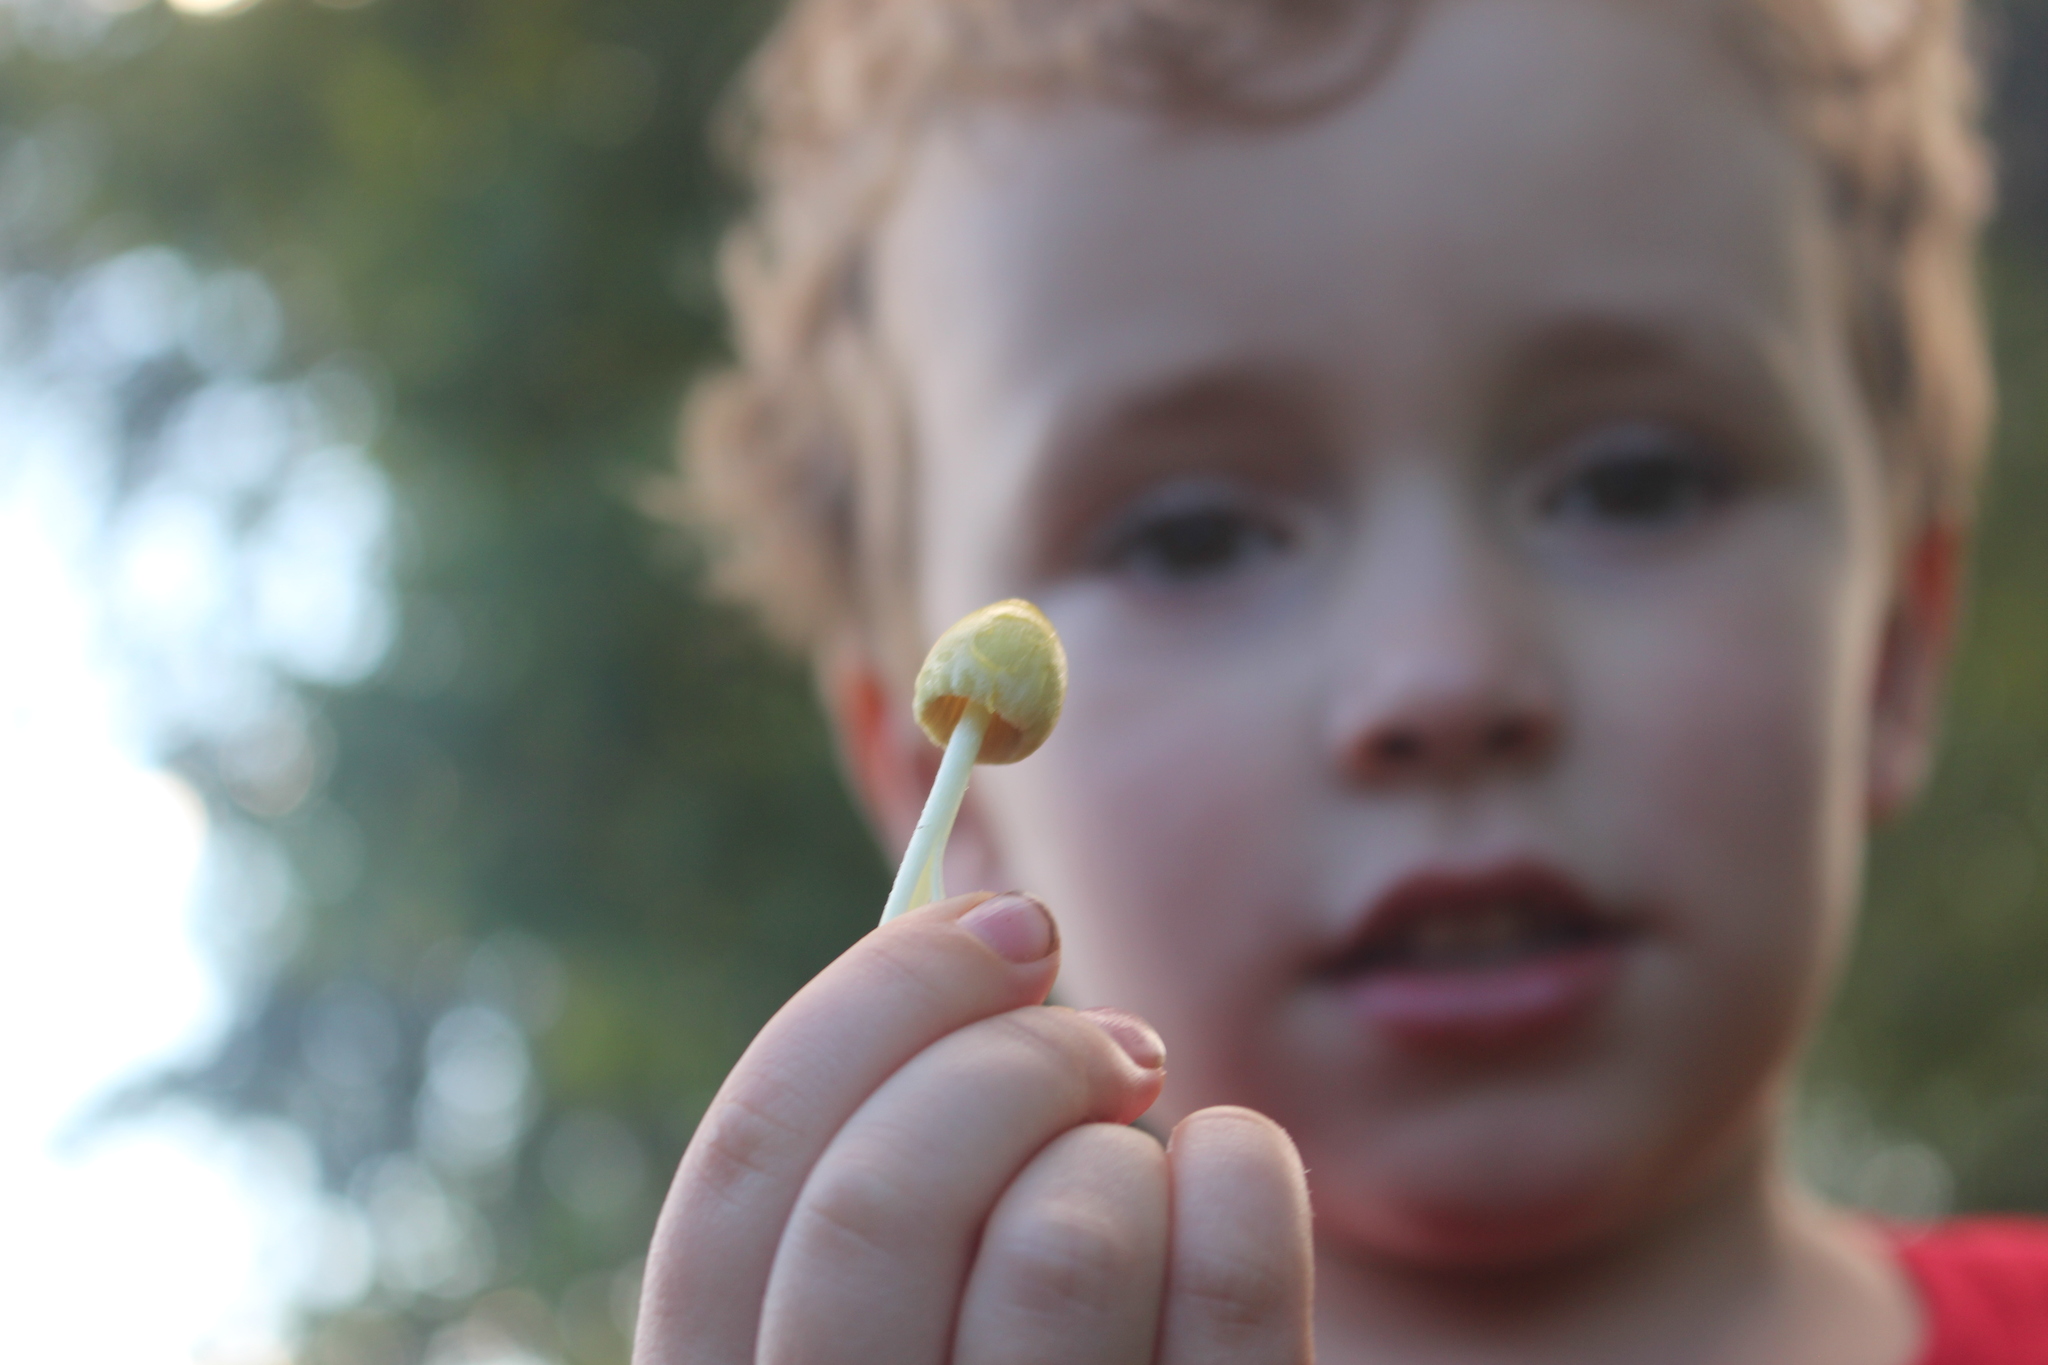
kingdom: Fungi
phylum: Basidiomycota
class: Agaricomycetes
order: Agaricales
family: Bolbitiaceae
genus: Bolbitius
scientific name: Bolbitius titubans
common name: Yellow fieldcap
